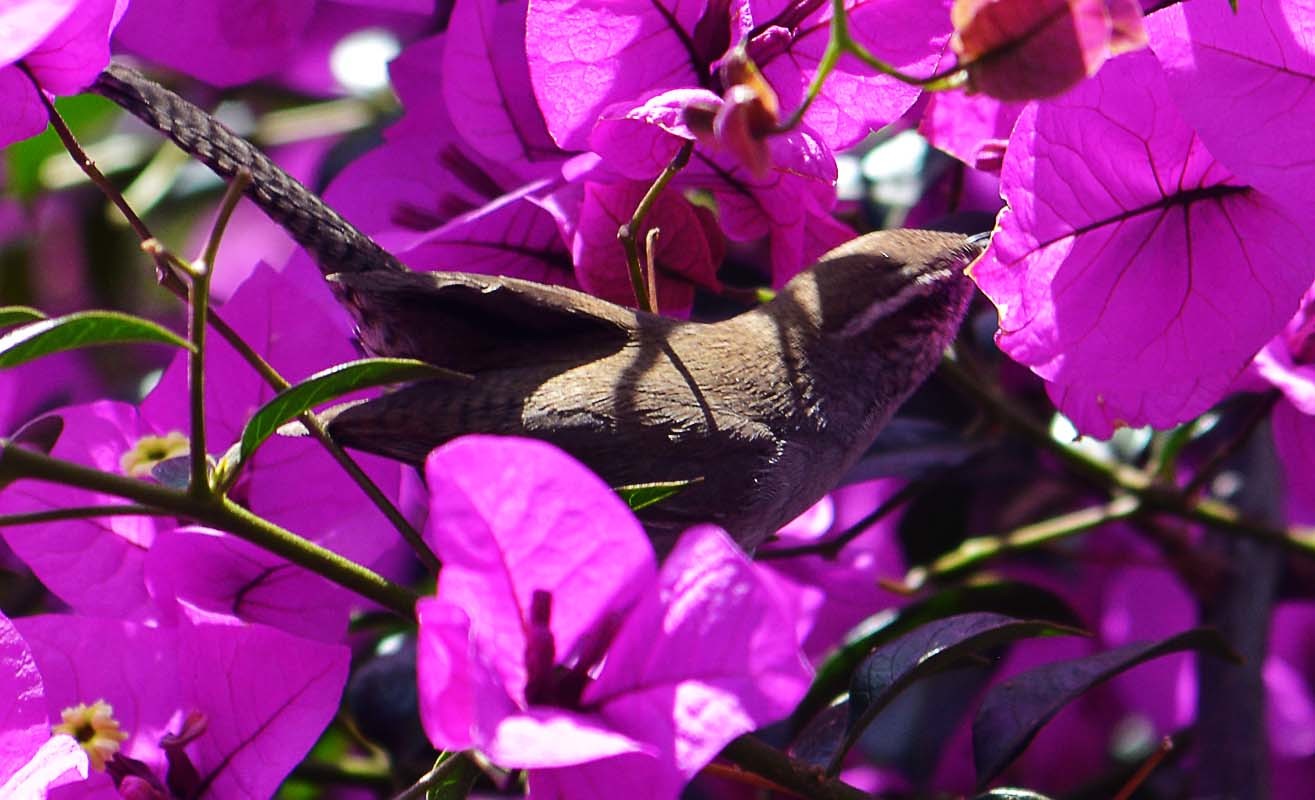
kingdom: Animalia
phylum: Chordata
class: Aves
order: Passeriformes
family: Troglodytidae
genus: Thryomanes
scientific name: Thryomanes bewickii
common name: Bewick's wren
